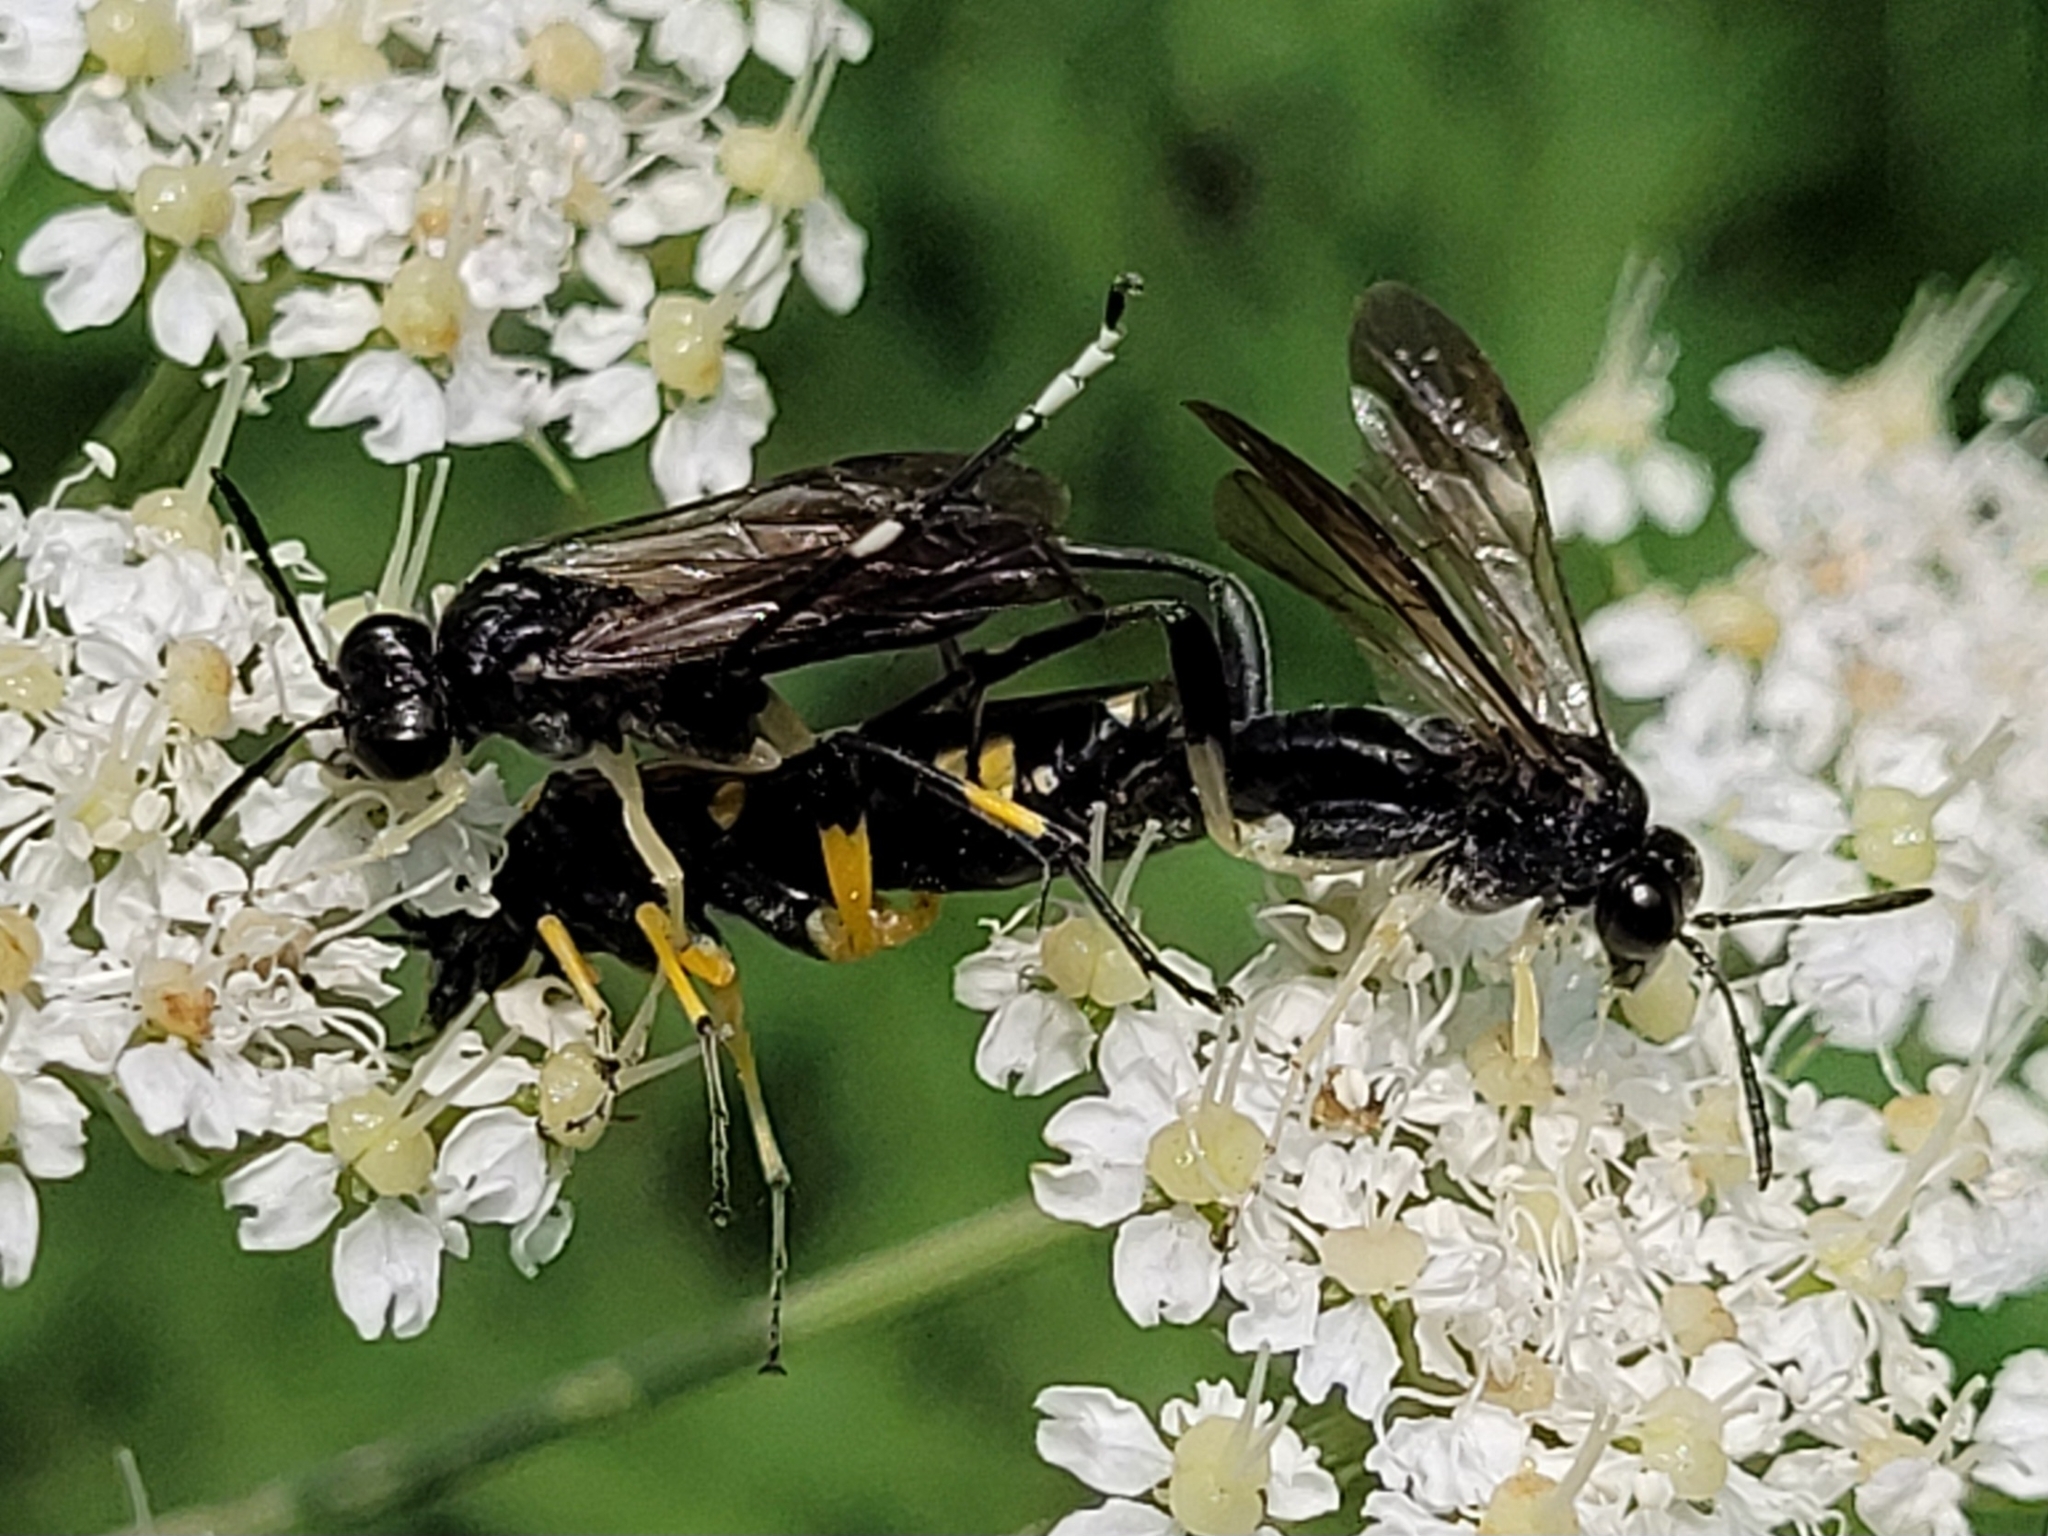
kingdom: Animalia
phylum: Arthropoda
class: Insecta
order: Hymenoptera
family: Tenthredinidae
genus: Macrophya
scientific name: Macrophya montana
